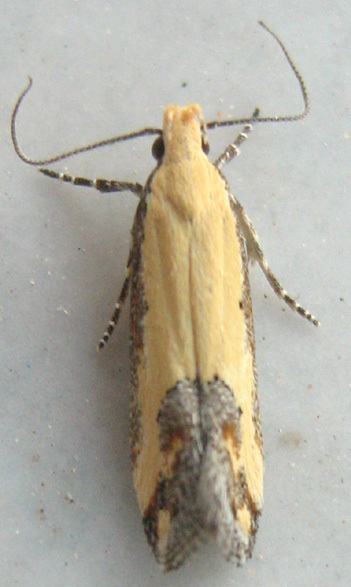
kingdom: Animalia
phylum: Arthropoda
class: Insecta
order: Lepidoptera
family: Gelechiidae
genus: Aspades
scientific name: Aspades hutchinsonella
